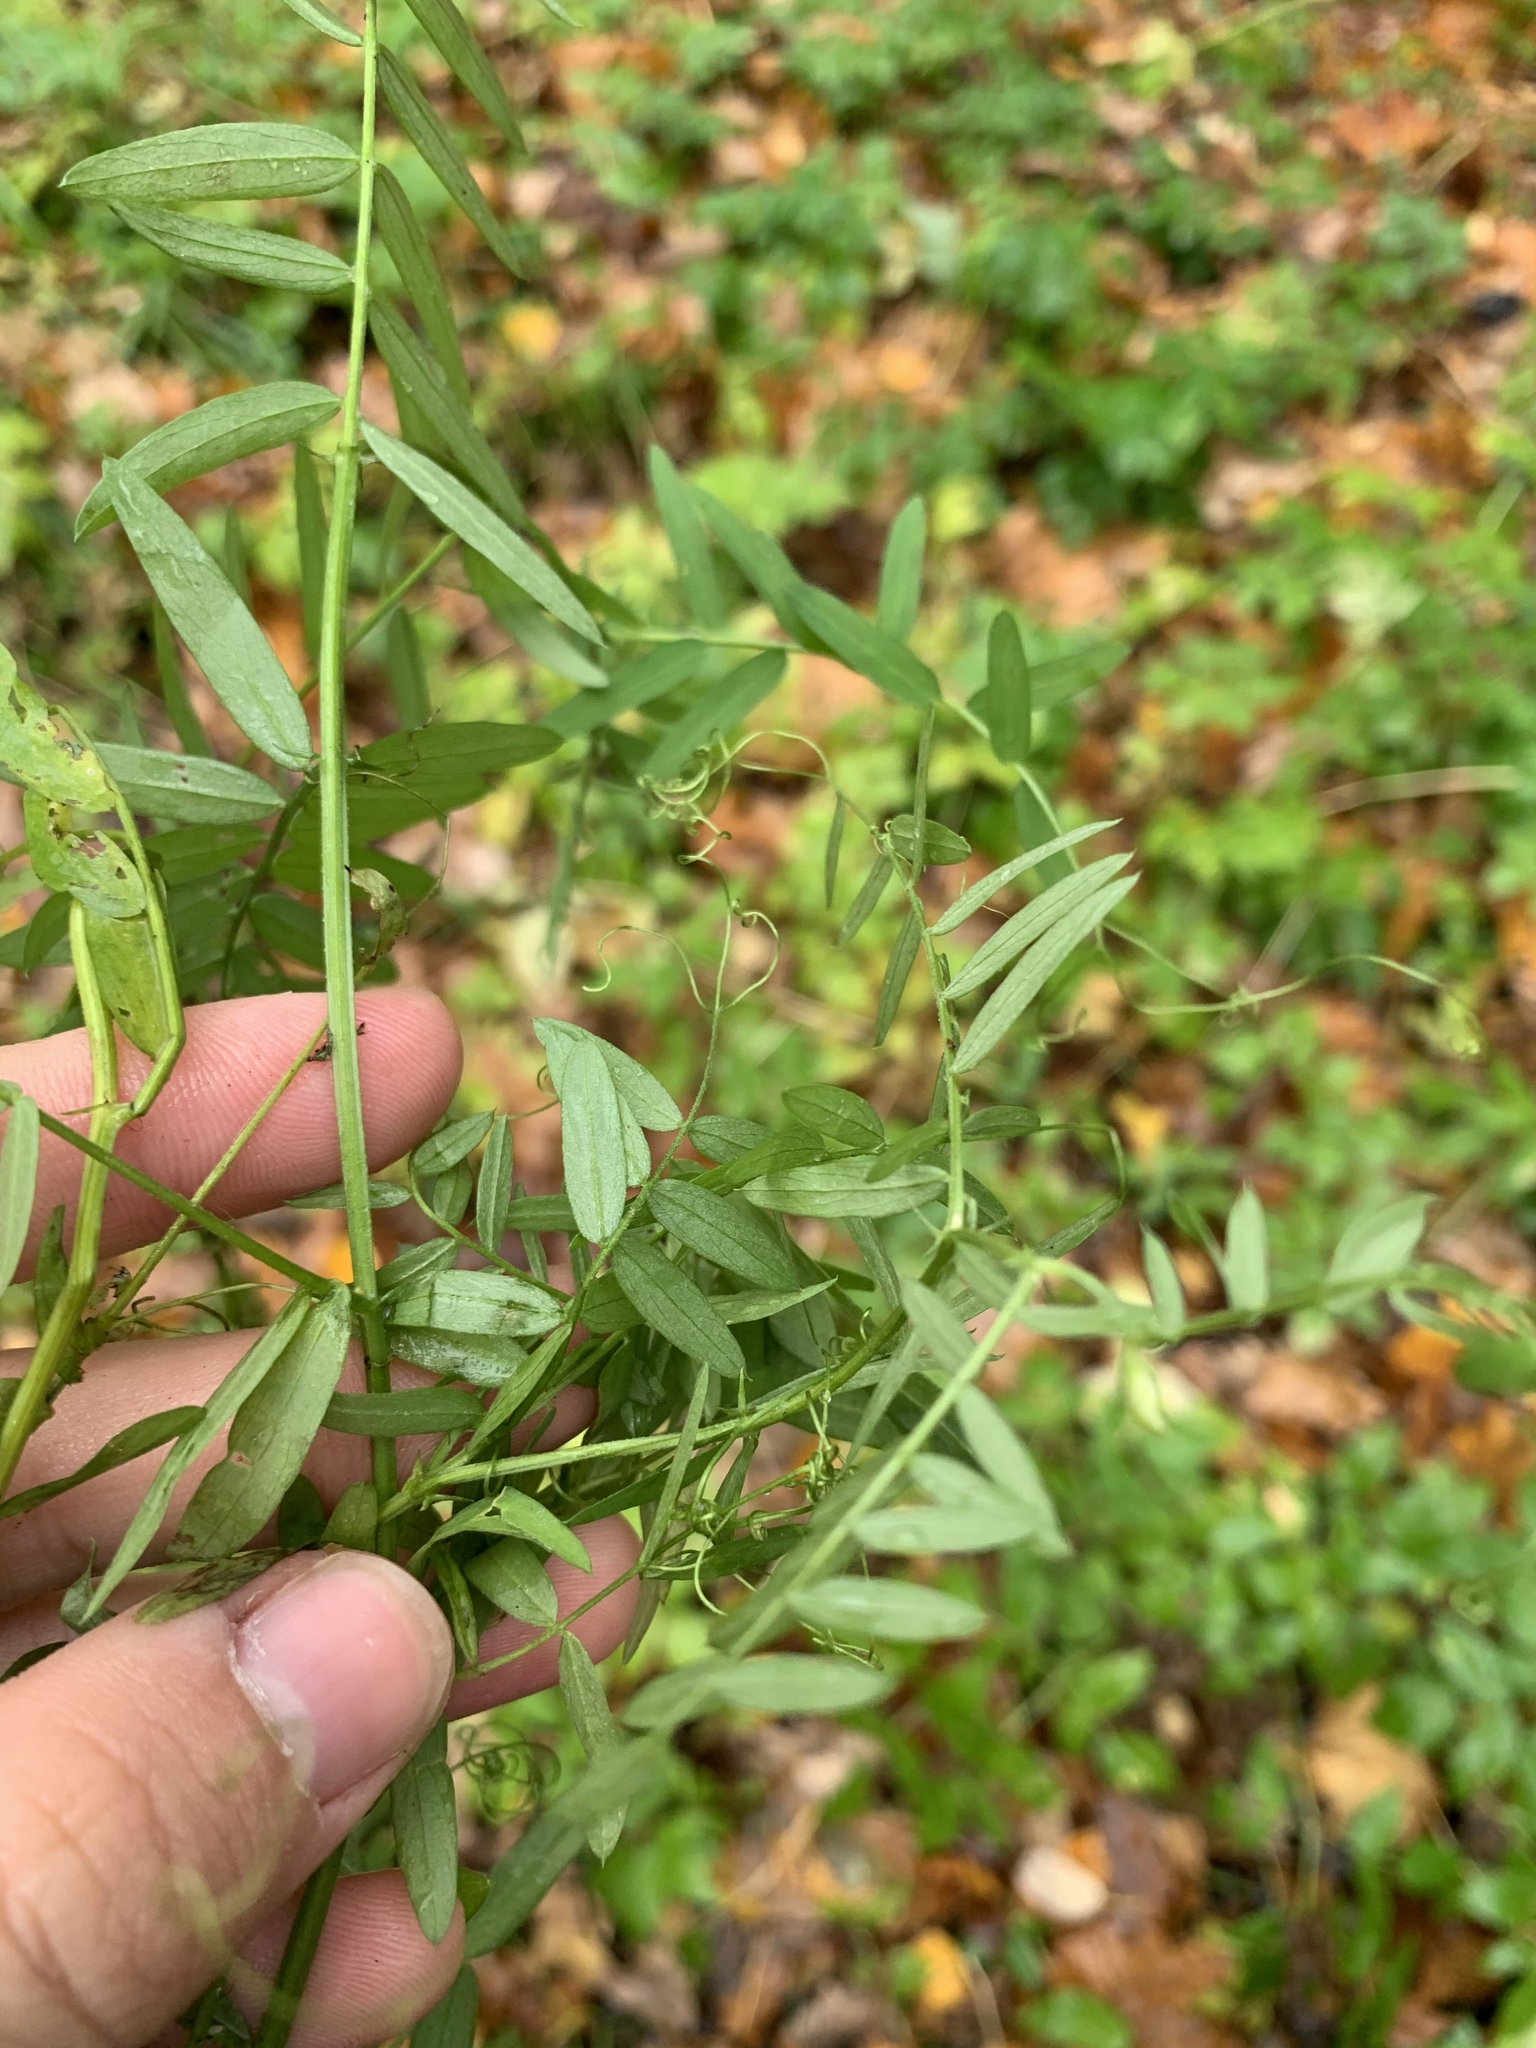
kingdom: Plantae
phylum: Tracheophyta
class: Magnoliopsida
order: Fabales
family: Fabaceae
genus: Vicia
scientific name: Vicia cracca
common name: Bird vetch
